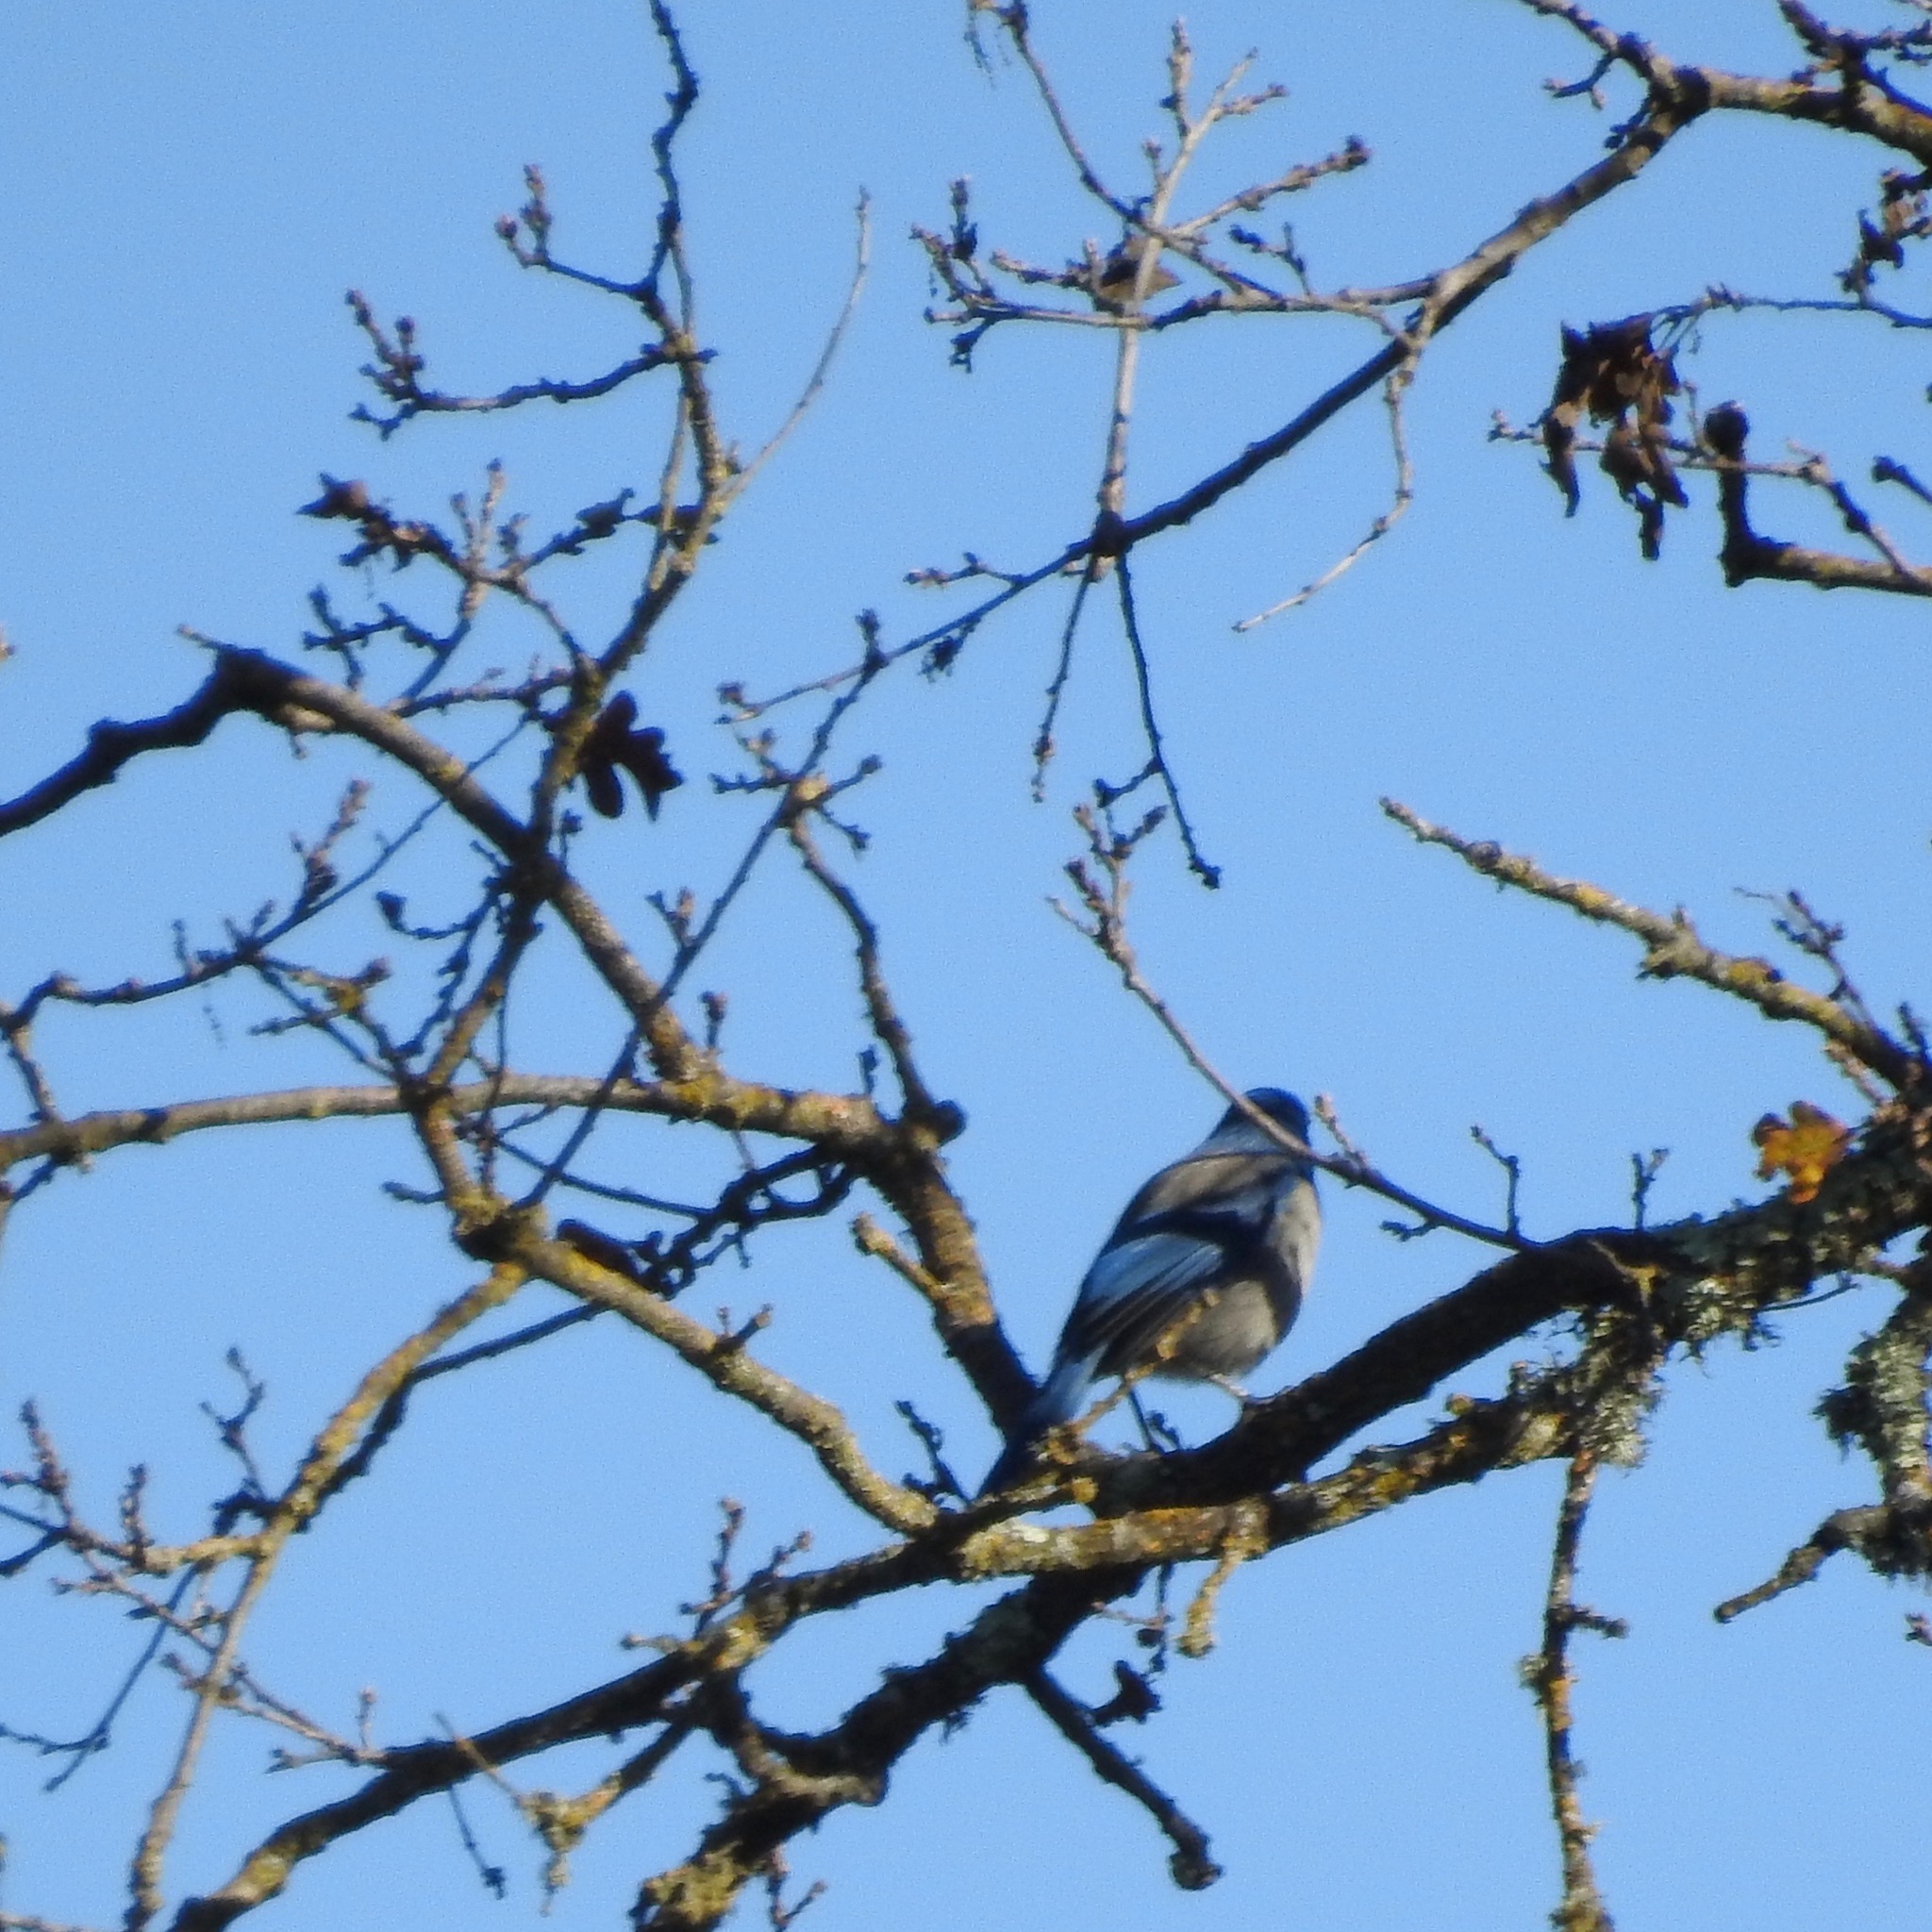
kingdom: Animalia
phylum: Chordata
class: Aves
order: Passeriformes
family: Corvidae
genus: Aphelocoma
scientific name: Aphelocoma californica
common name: California scrub-jay
